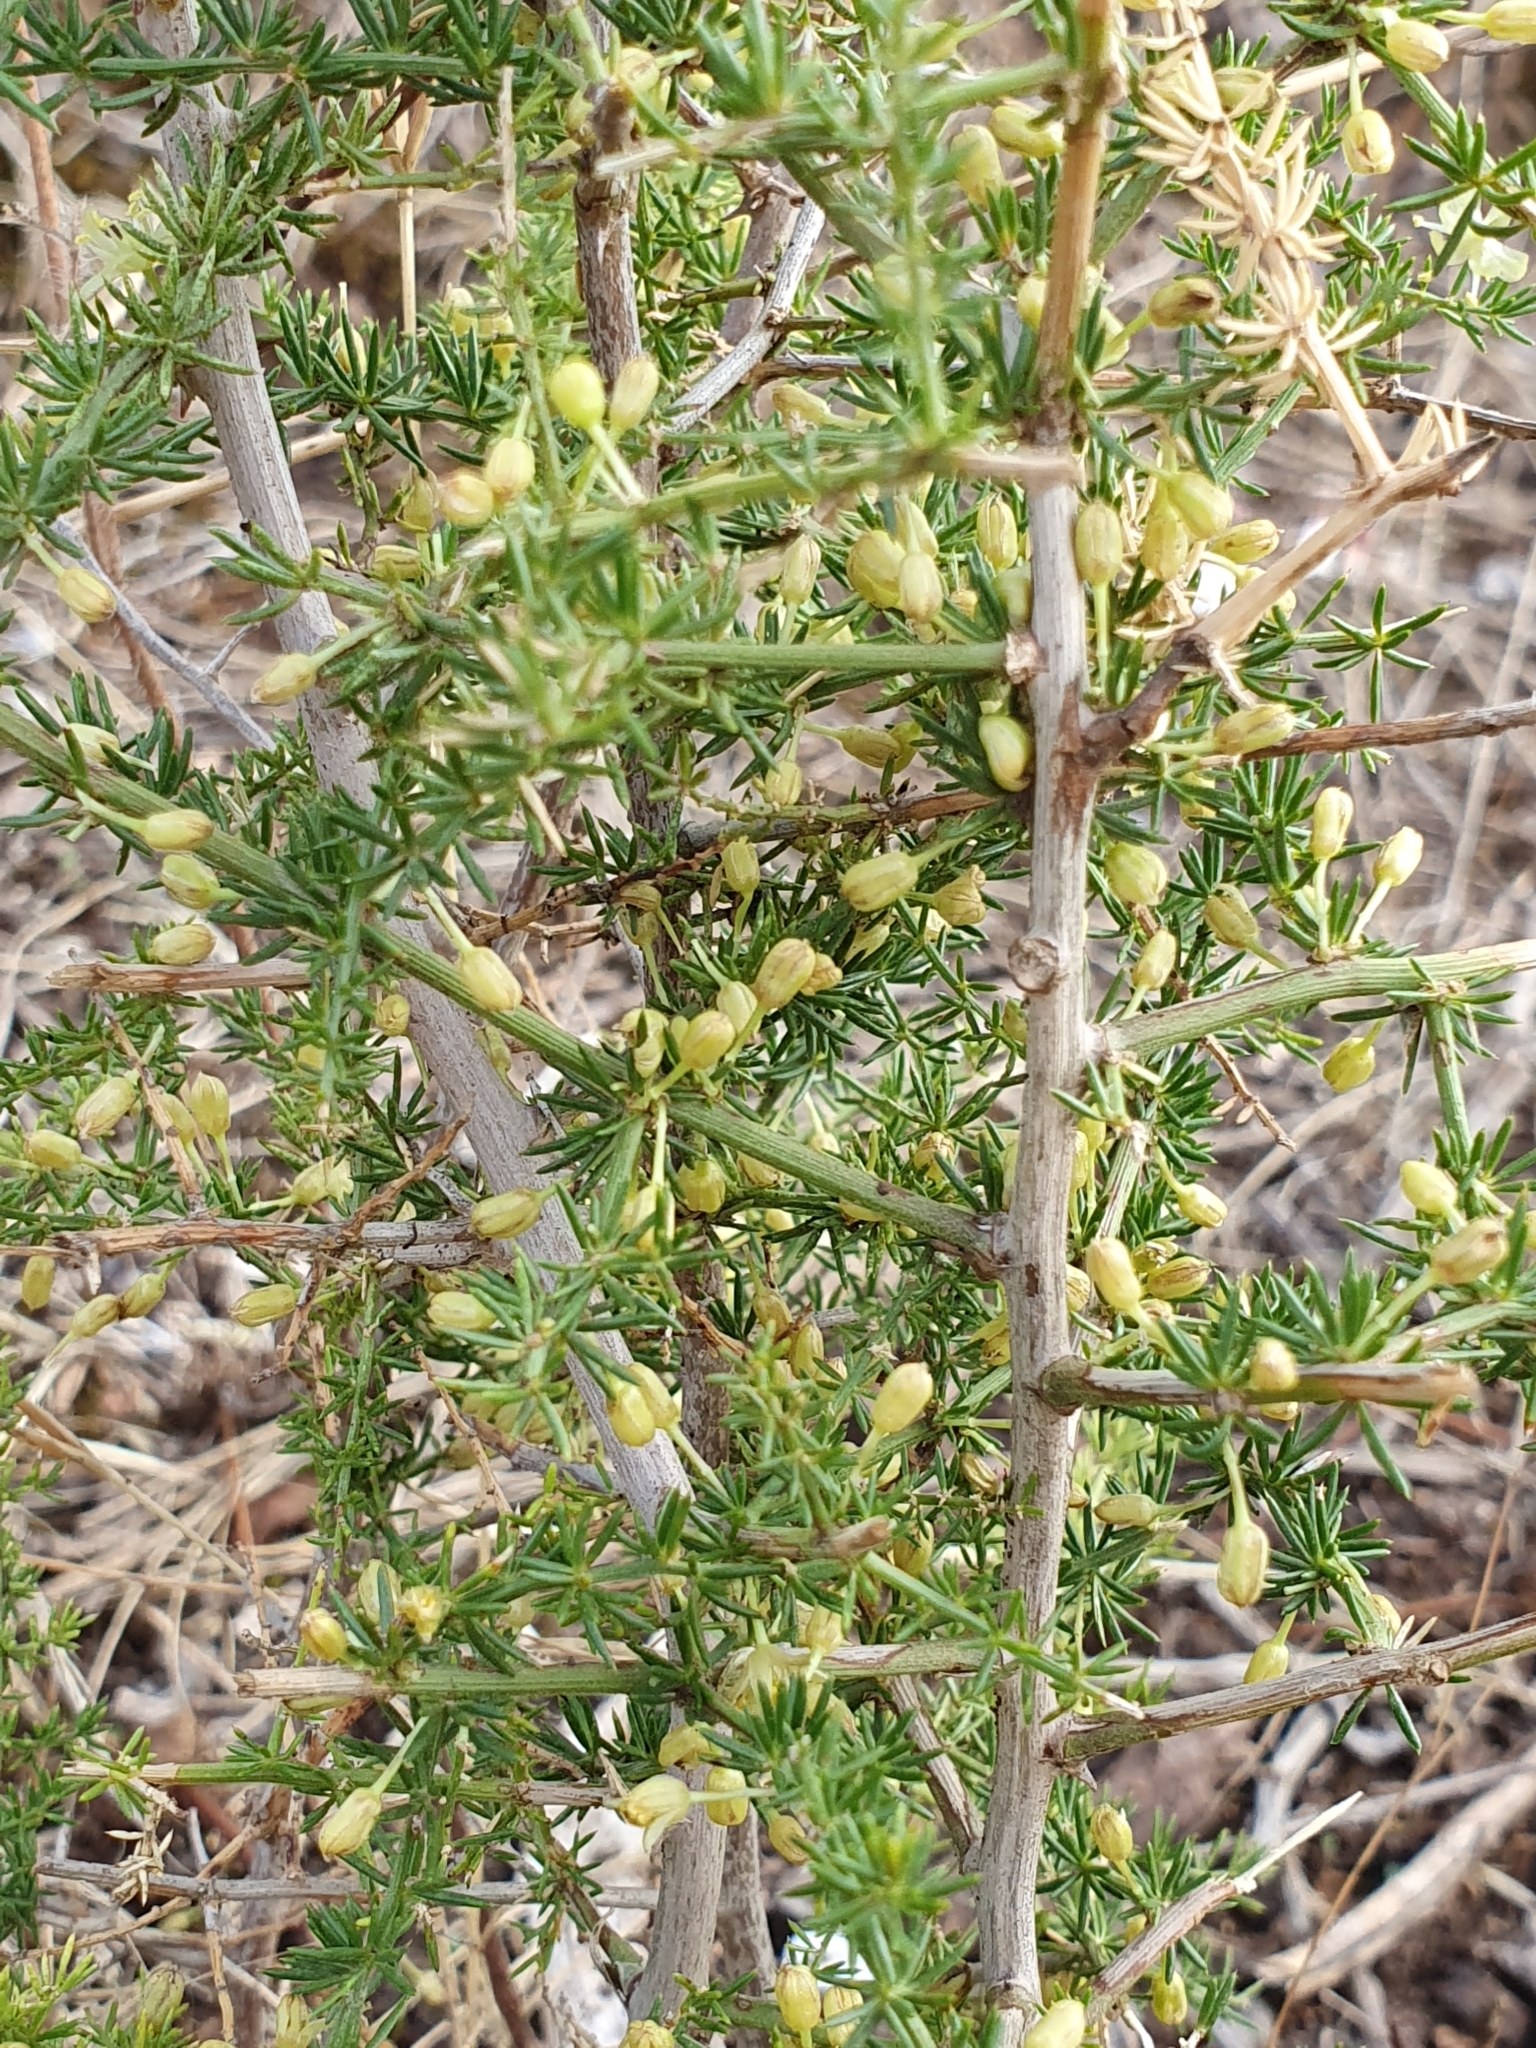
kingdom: Plantae
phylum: Tracheophyta
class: Liliopsida
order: Asparagales
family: Asparagaceae
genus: Asparagus
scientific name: Asparagus acutifolius
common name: Wild asparagus
